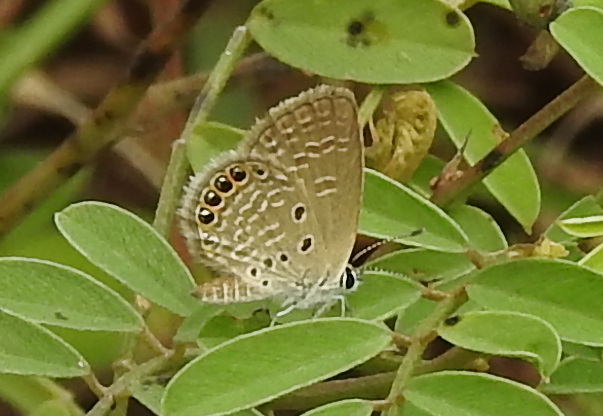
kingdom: Animalia
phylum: Arthropoda
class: Insecta
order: Lepidoptera
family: Lycaenidae
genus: Freyeria
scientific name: Freyeria putli
